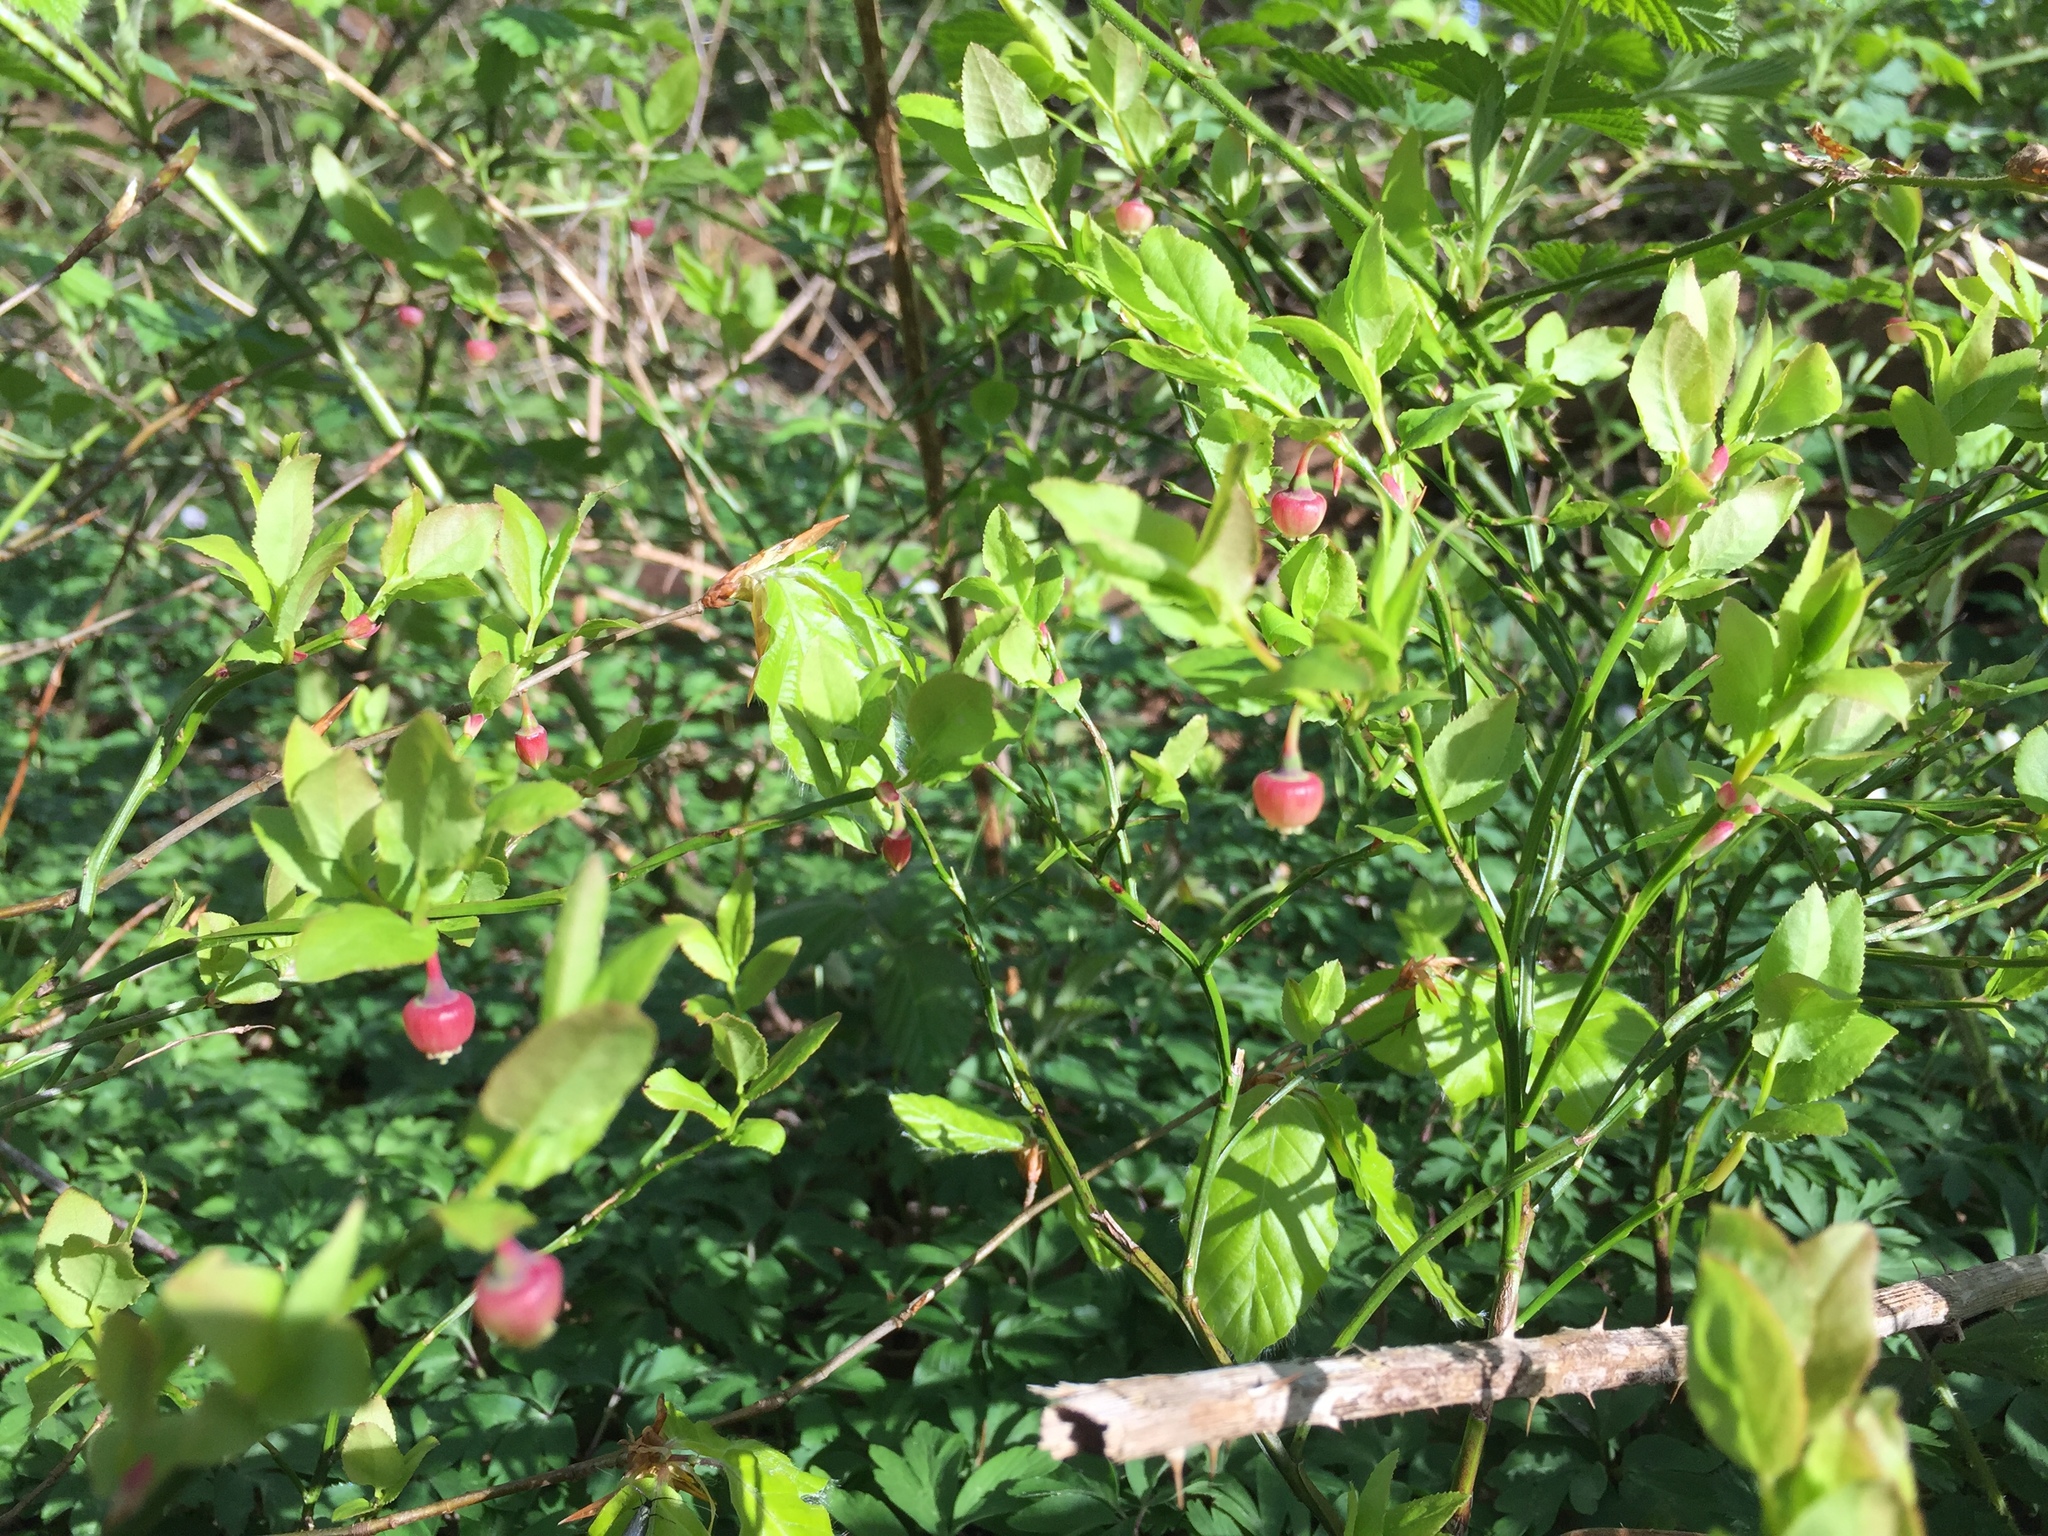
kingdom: Plantae
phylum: Tracheophyta
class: Magnoliopsida
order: Ericales
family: Ericaceae
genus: Vaccinium
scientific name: Vaccinium myrtillus
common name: Bilberry
